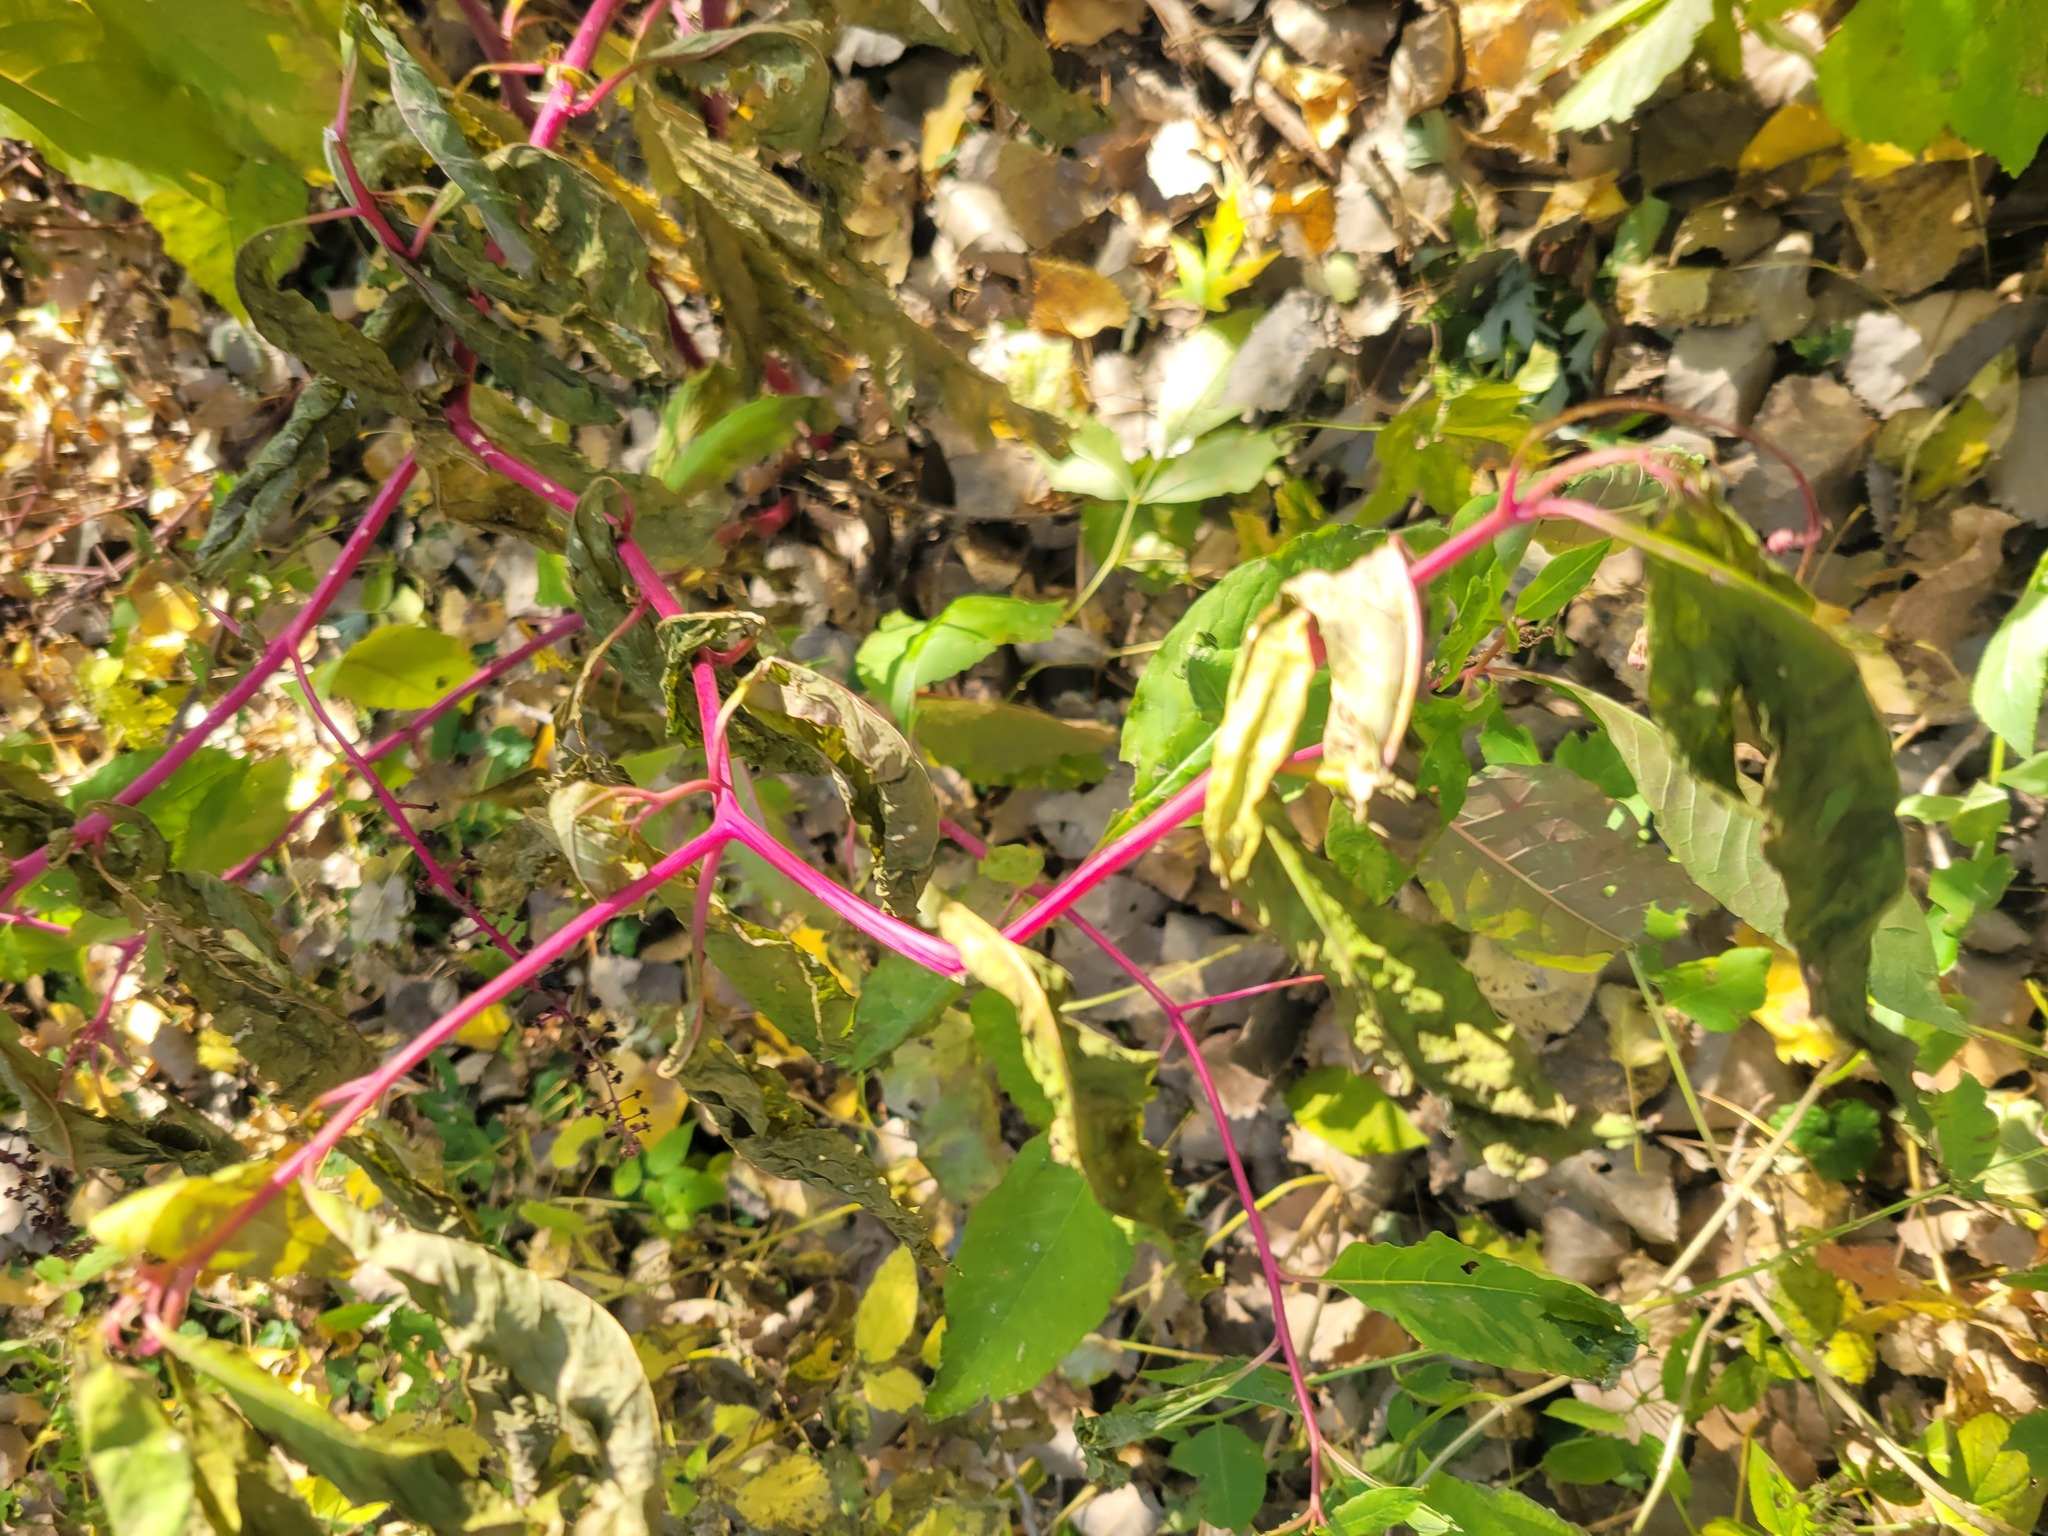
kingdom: Plantae
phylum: Tracheophyta
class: Magnoliopsida
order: Caryophyllales
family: Phytolaccaceae
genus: Phytolacca
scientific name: Phytolacca americana
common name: American pokeweed
